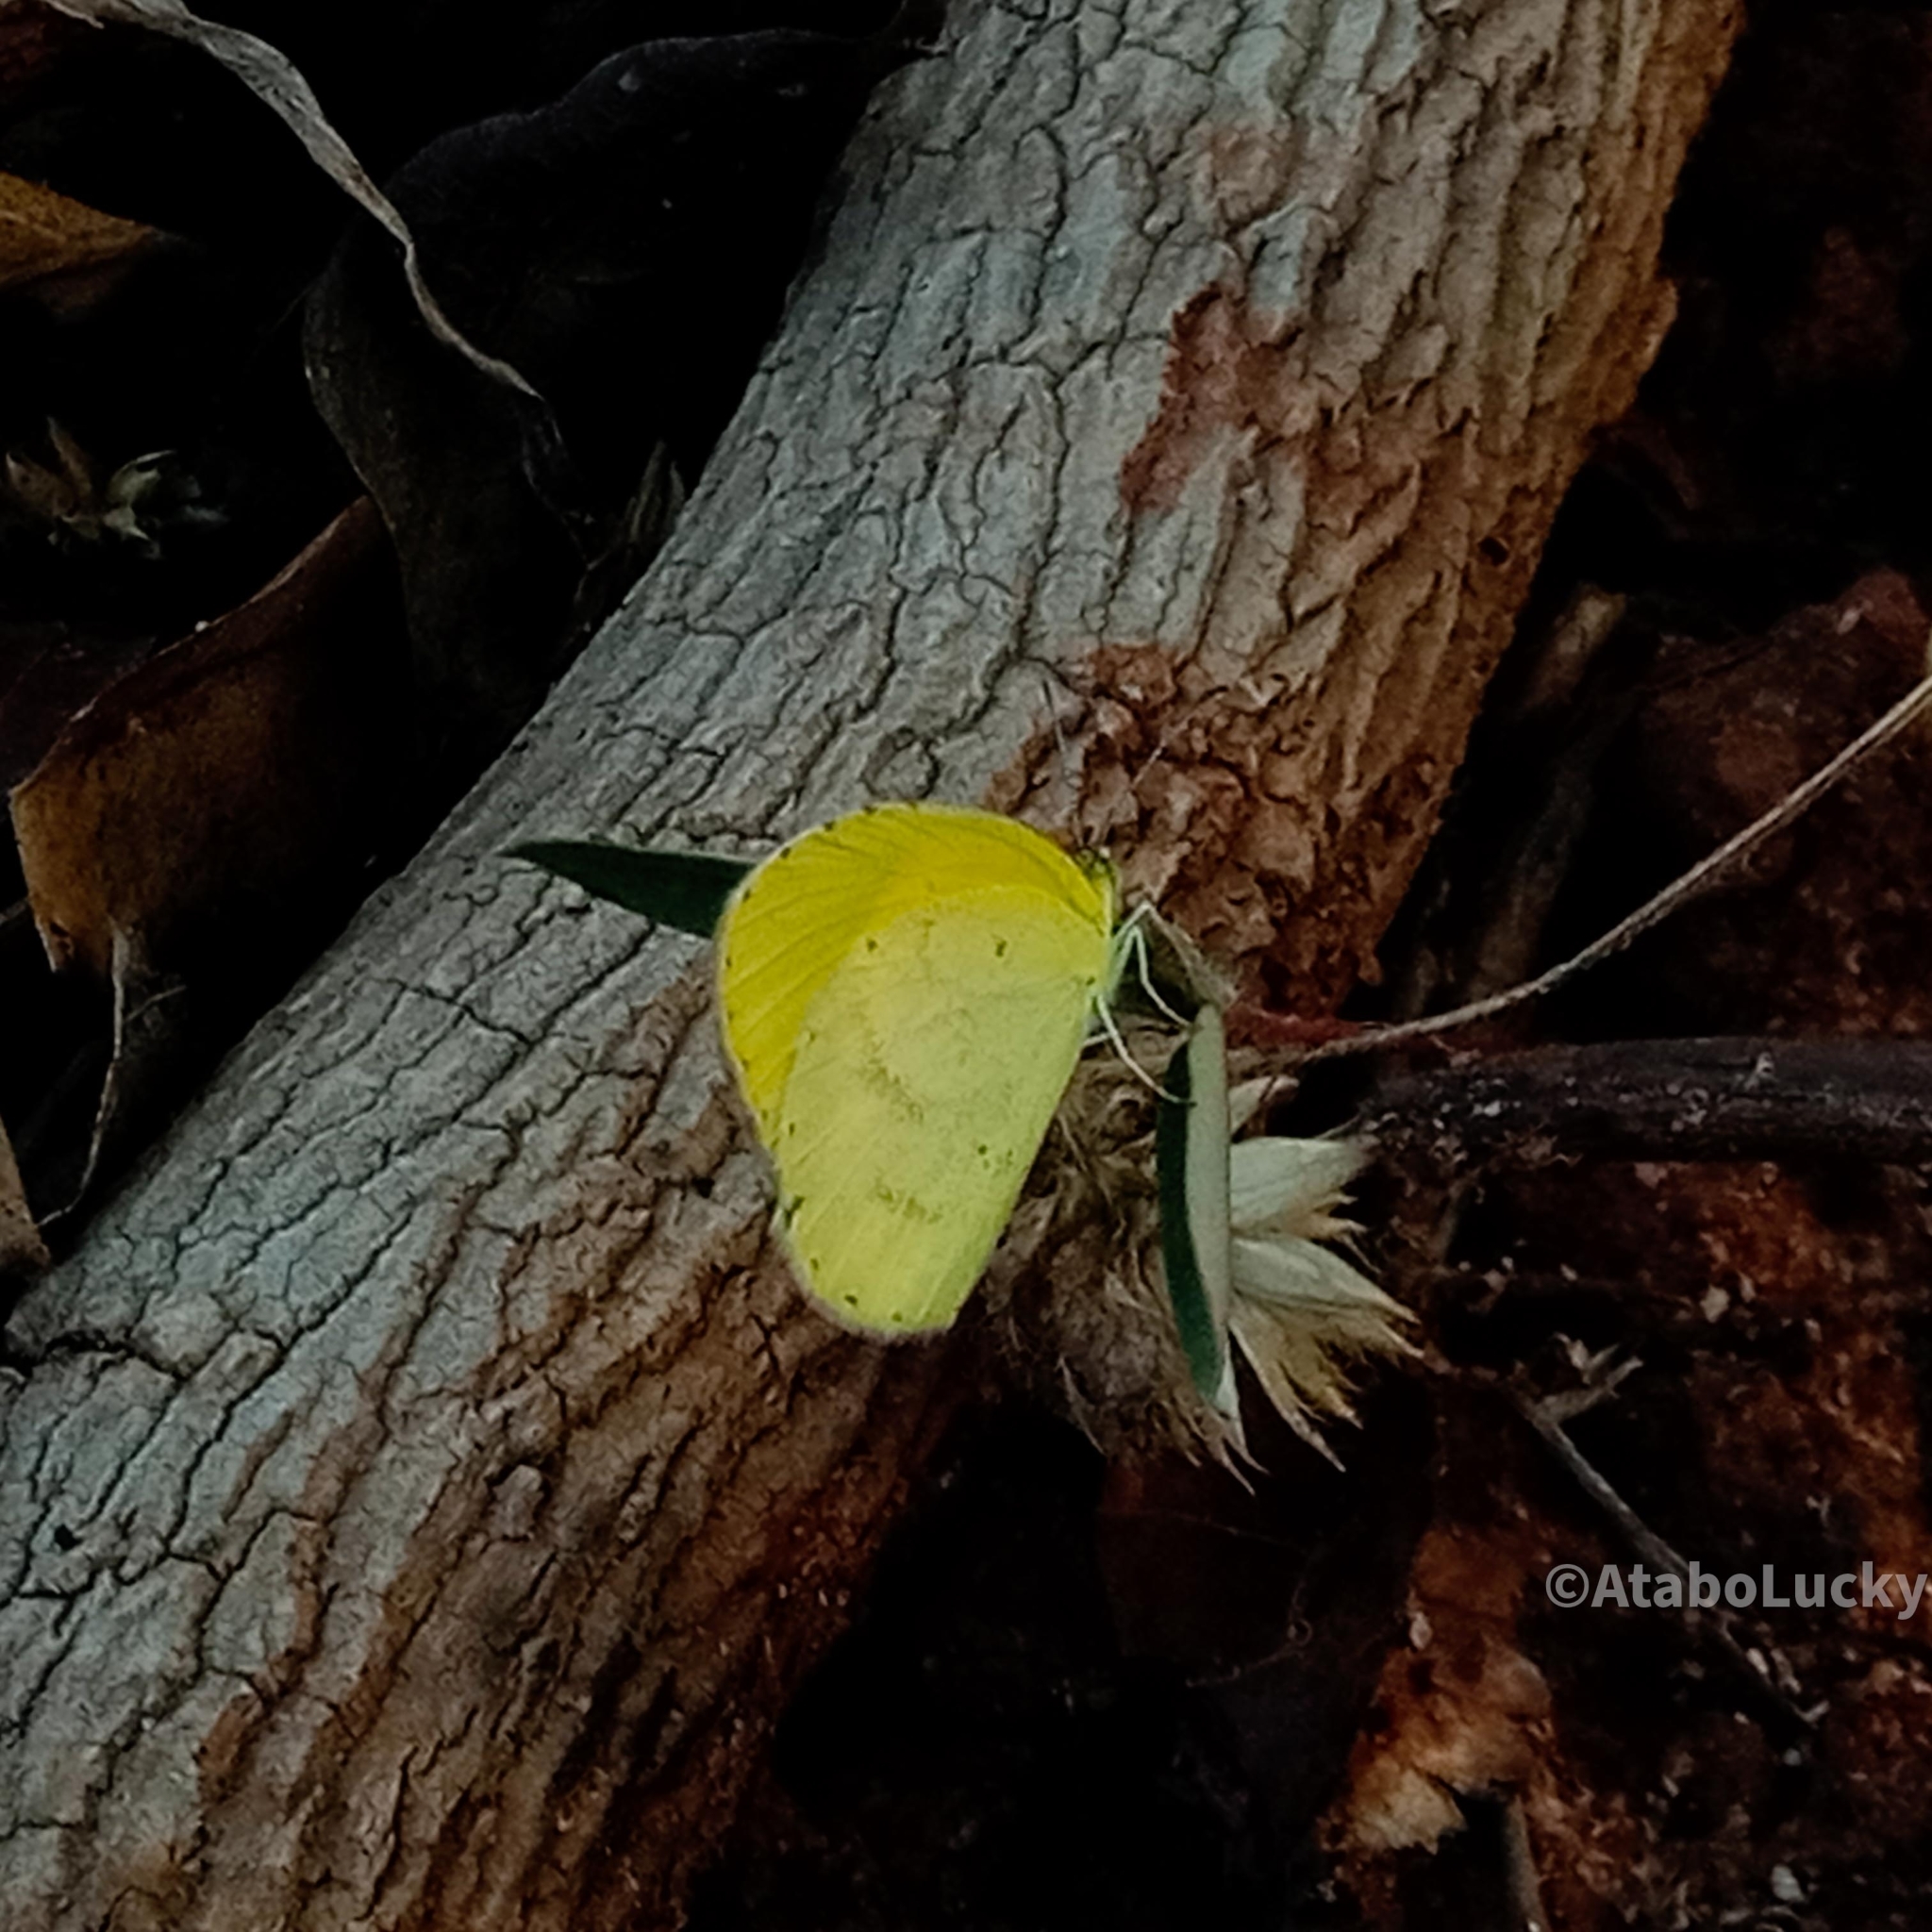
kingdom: Animalia
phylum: Arthropoda
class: Insecta
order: Lepidoptera
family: Pieridae
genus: Eurema
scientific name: Eurema brigitta
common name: Small grass yellow
